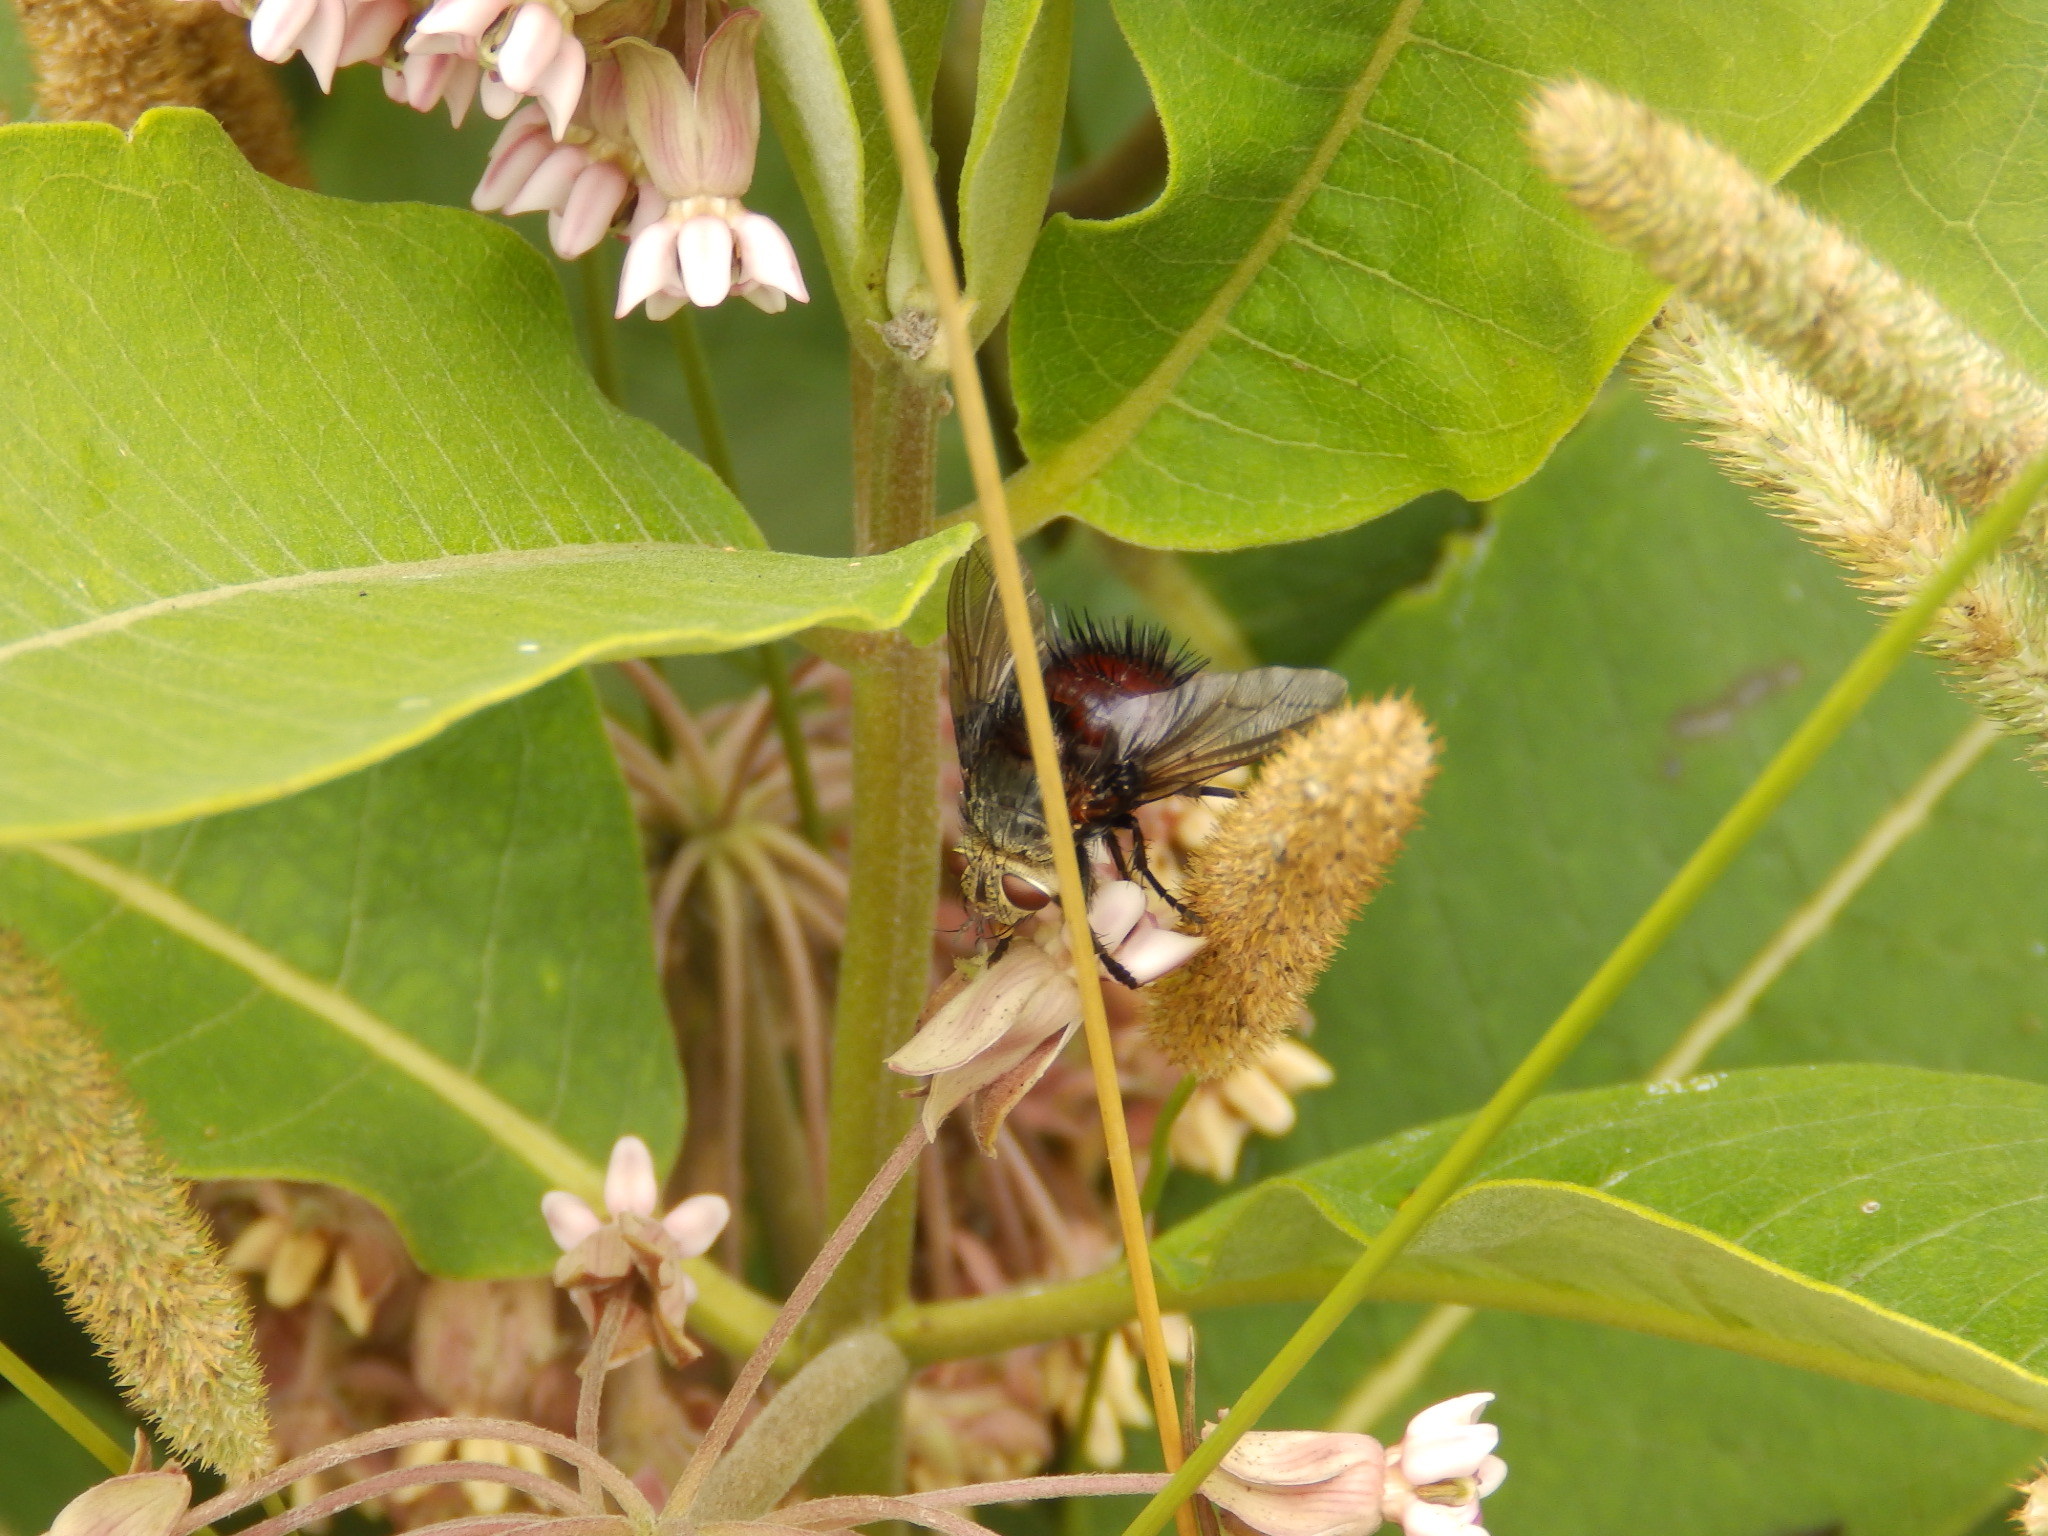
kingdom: Animalia
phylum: Arthropoda
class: Insecta
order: Diptera
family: Tachinidae
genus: Juriniopsis
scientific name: Juriniopsis adusta
